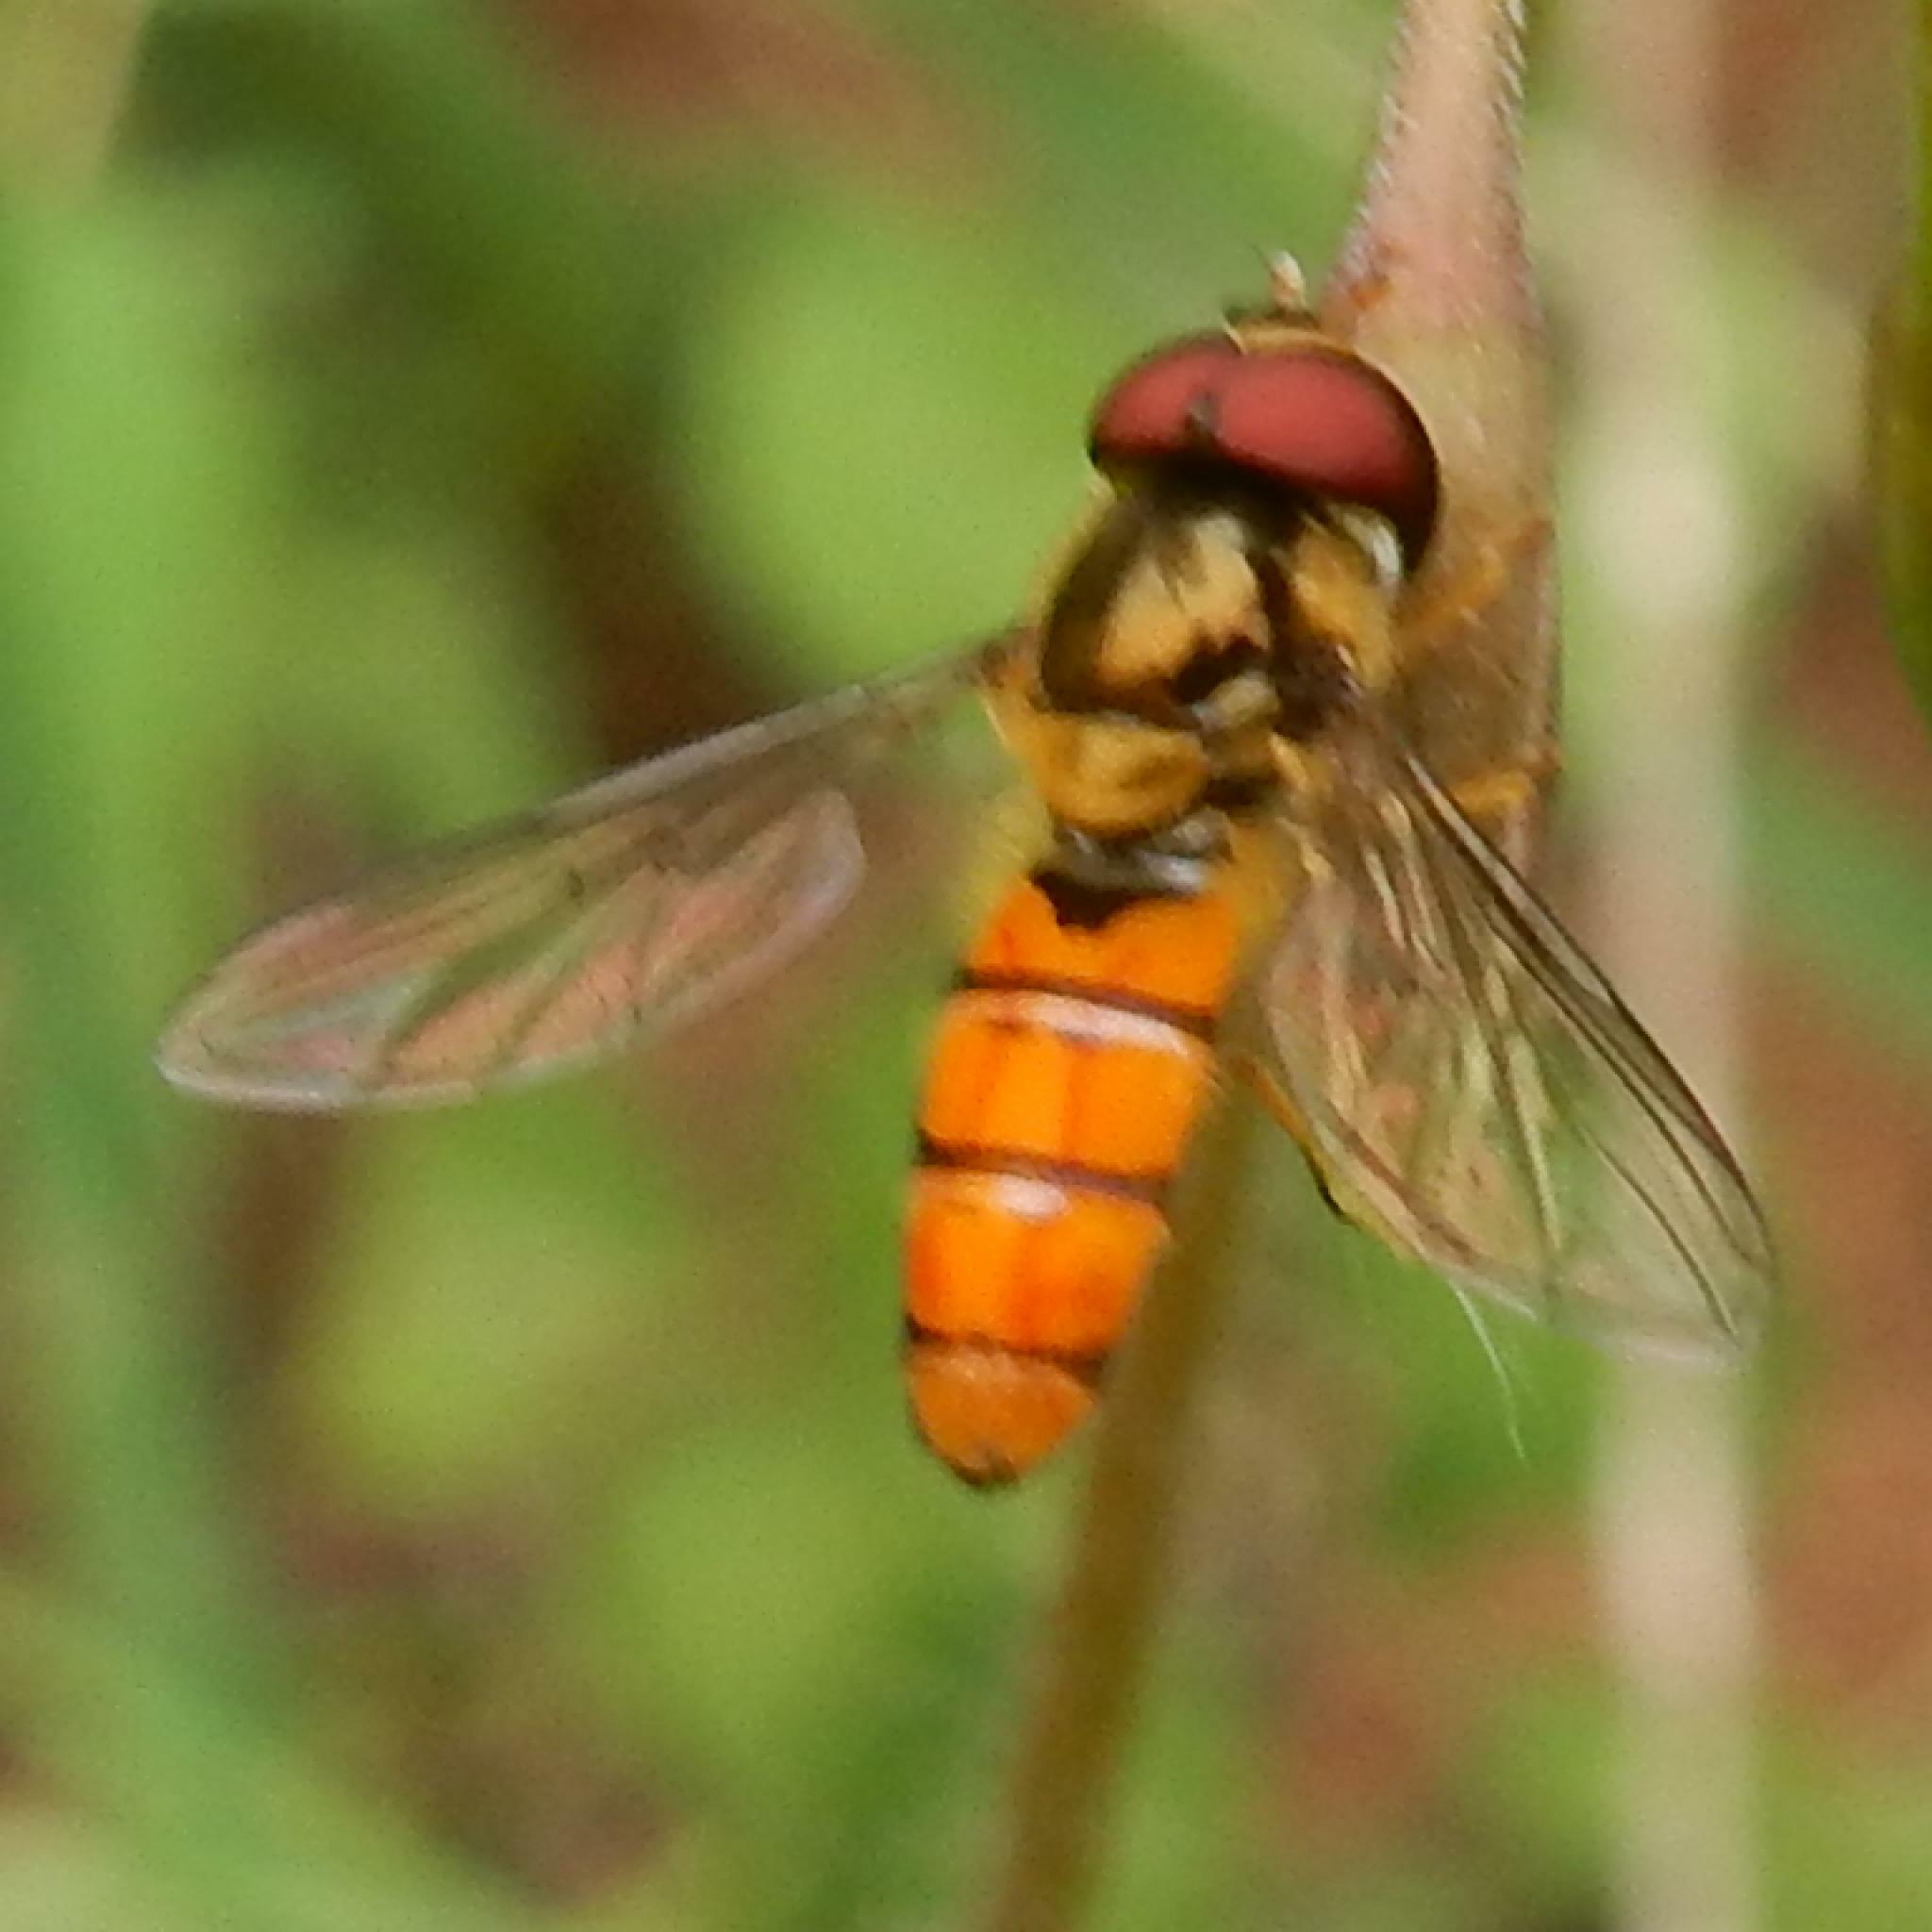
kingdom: Animalia
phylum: Arthropoda
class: Insecta
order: Diptera
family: Syrphidae
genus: Episyrphus
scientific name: Episyrphus trisectus
